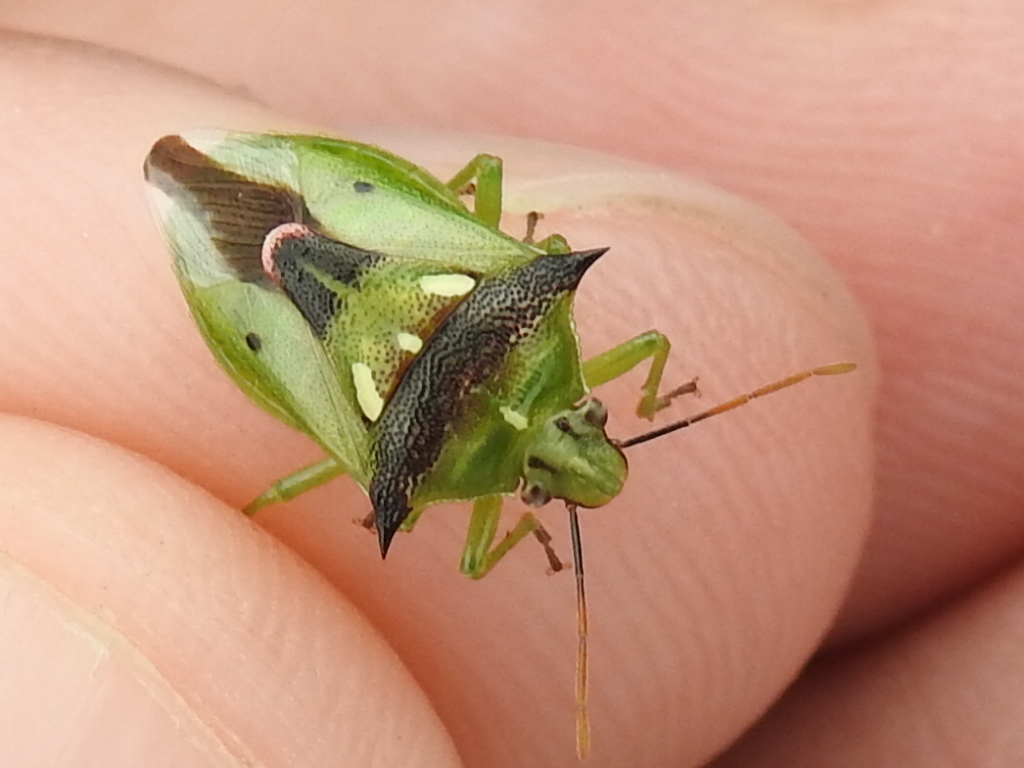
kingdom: Animalia
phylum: Arthropoda
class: Insecta
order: Hemiptera
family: Pentatomidae
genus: Tylospilus
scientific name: Tylospilus acutissimus
